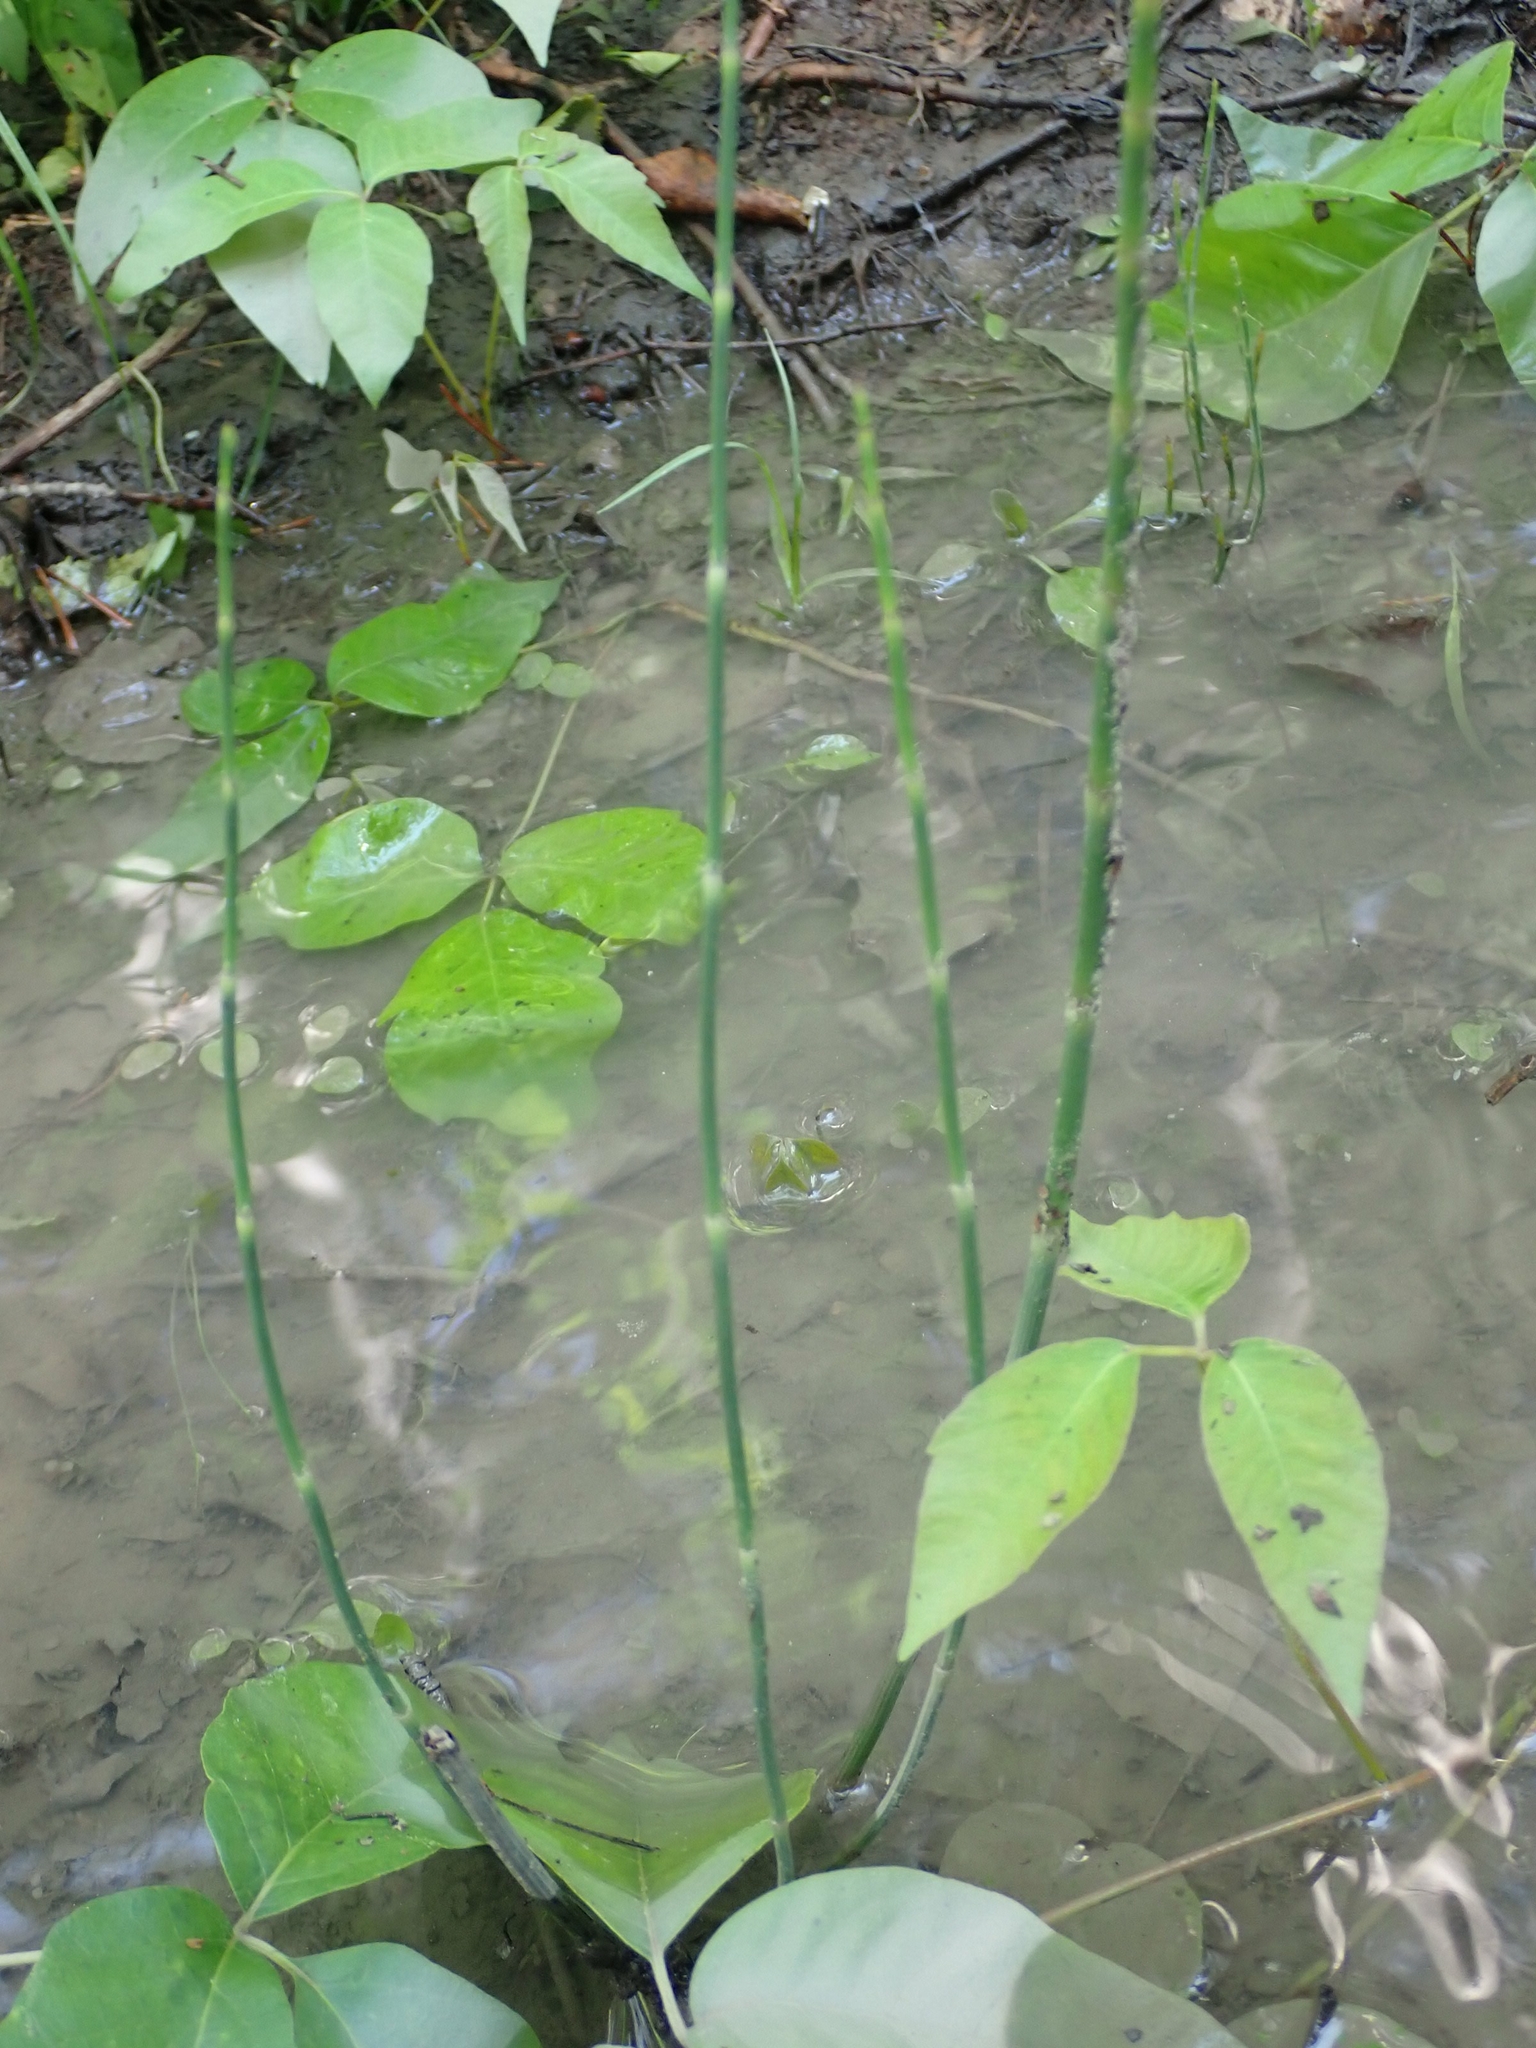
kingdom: Plantae
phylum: Tracheophyta
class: Polypodiopsida
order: Equisetales
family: Equisetaceae
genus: Equisetum
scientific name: Equisetum variegatum
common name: Variegated horsetail
